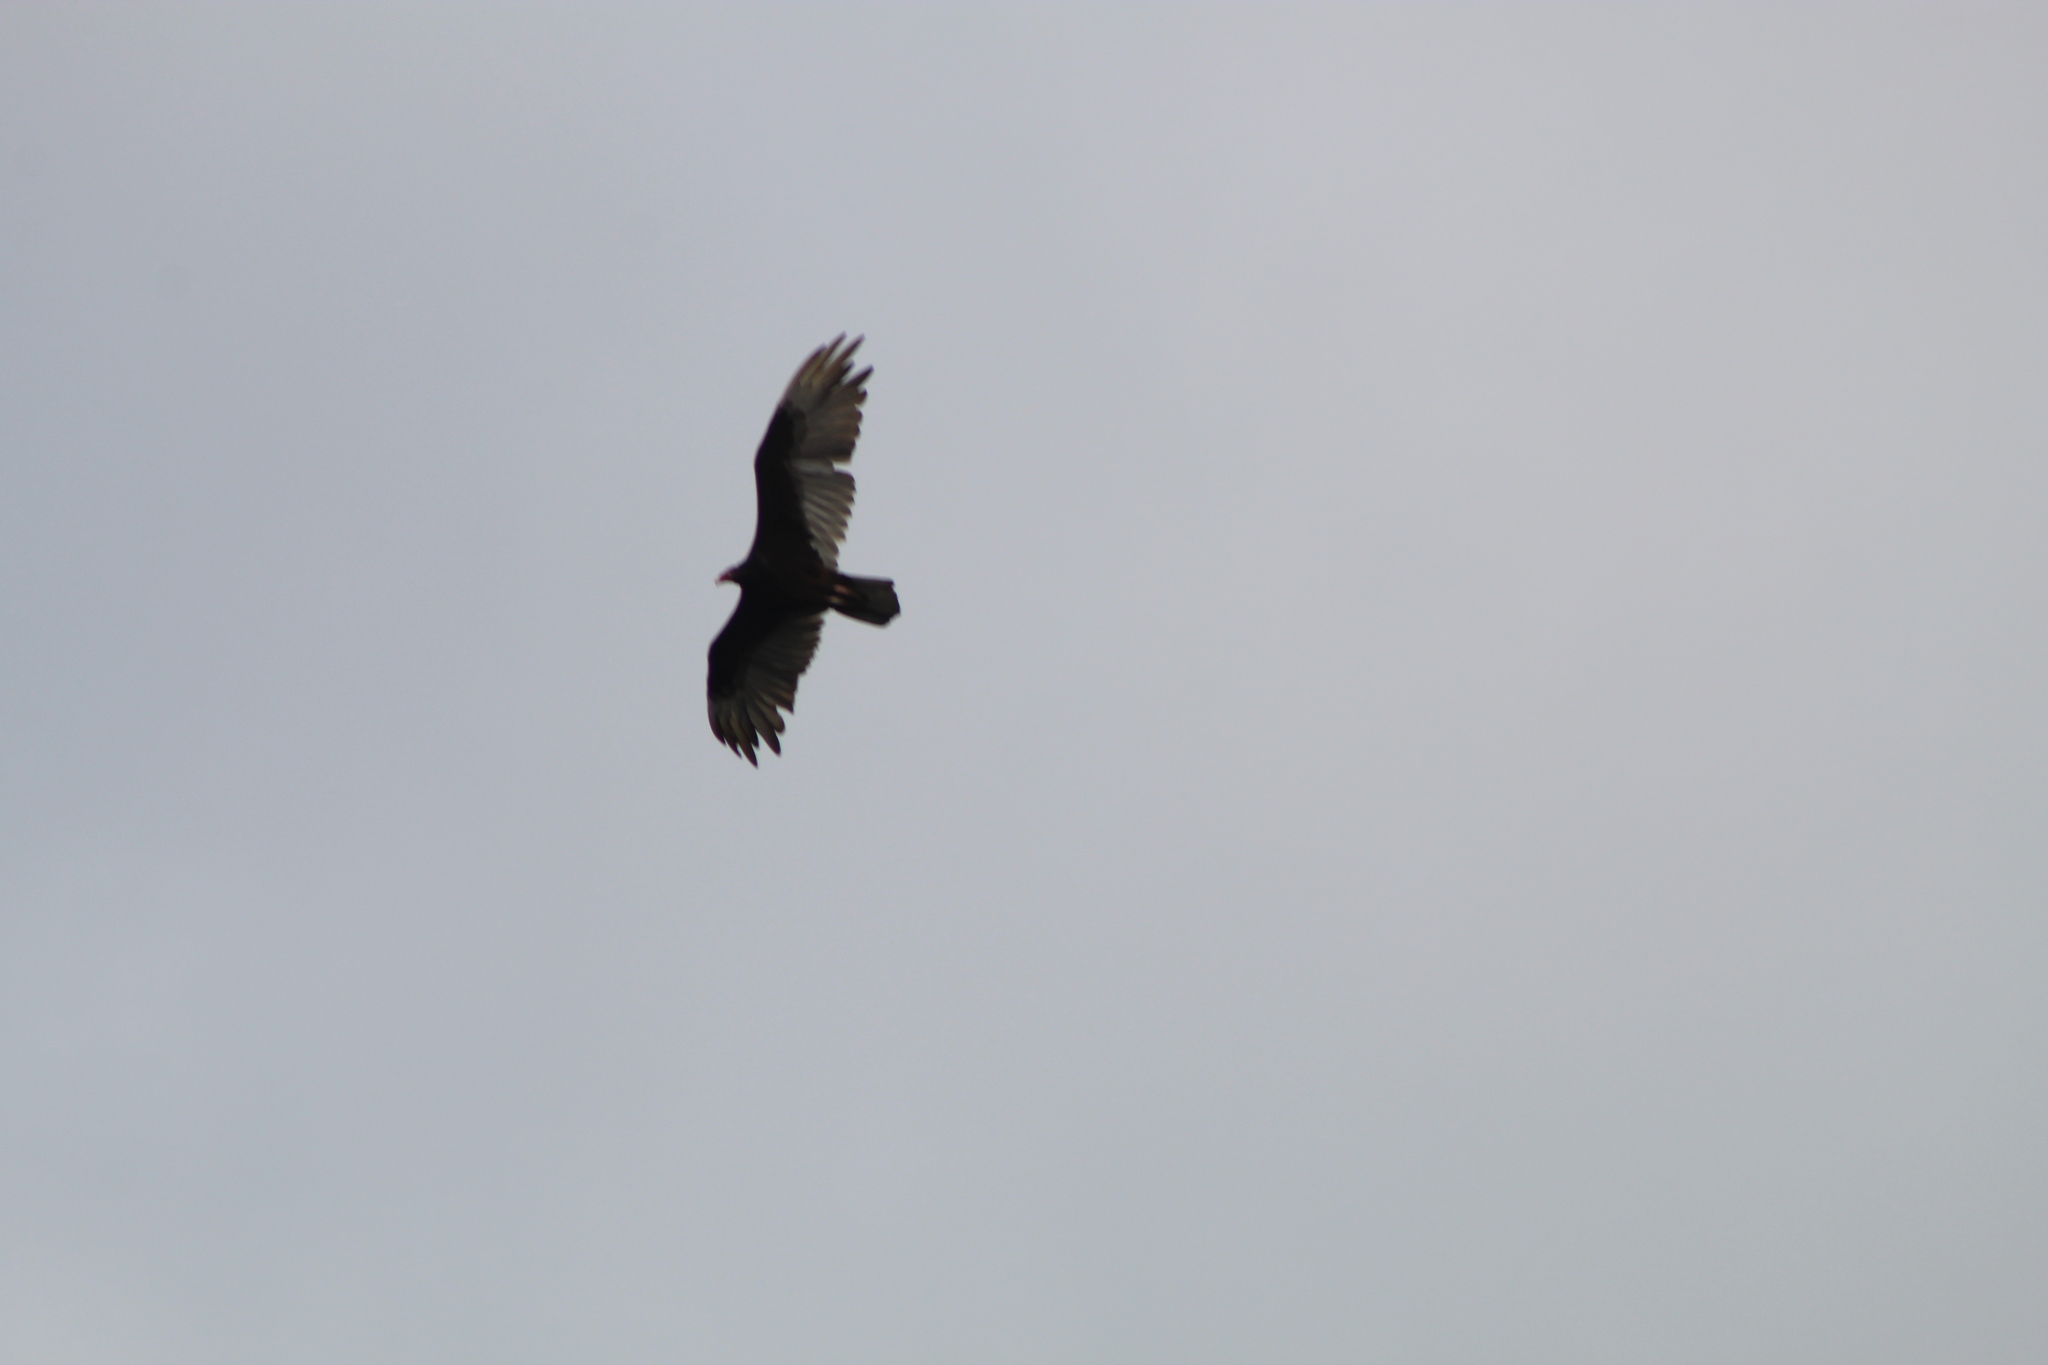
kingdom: Animalia
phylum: Chordata
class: Aves
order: Accipitriformes
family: Cathartidae
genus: Cathartes
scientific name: Cathartes aura
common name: Turkey vulture
